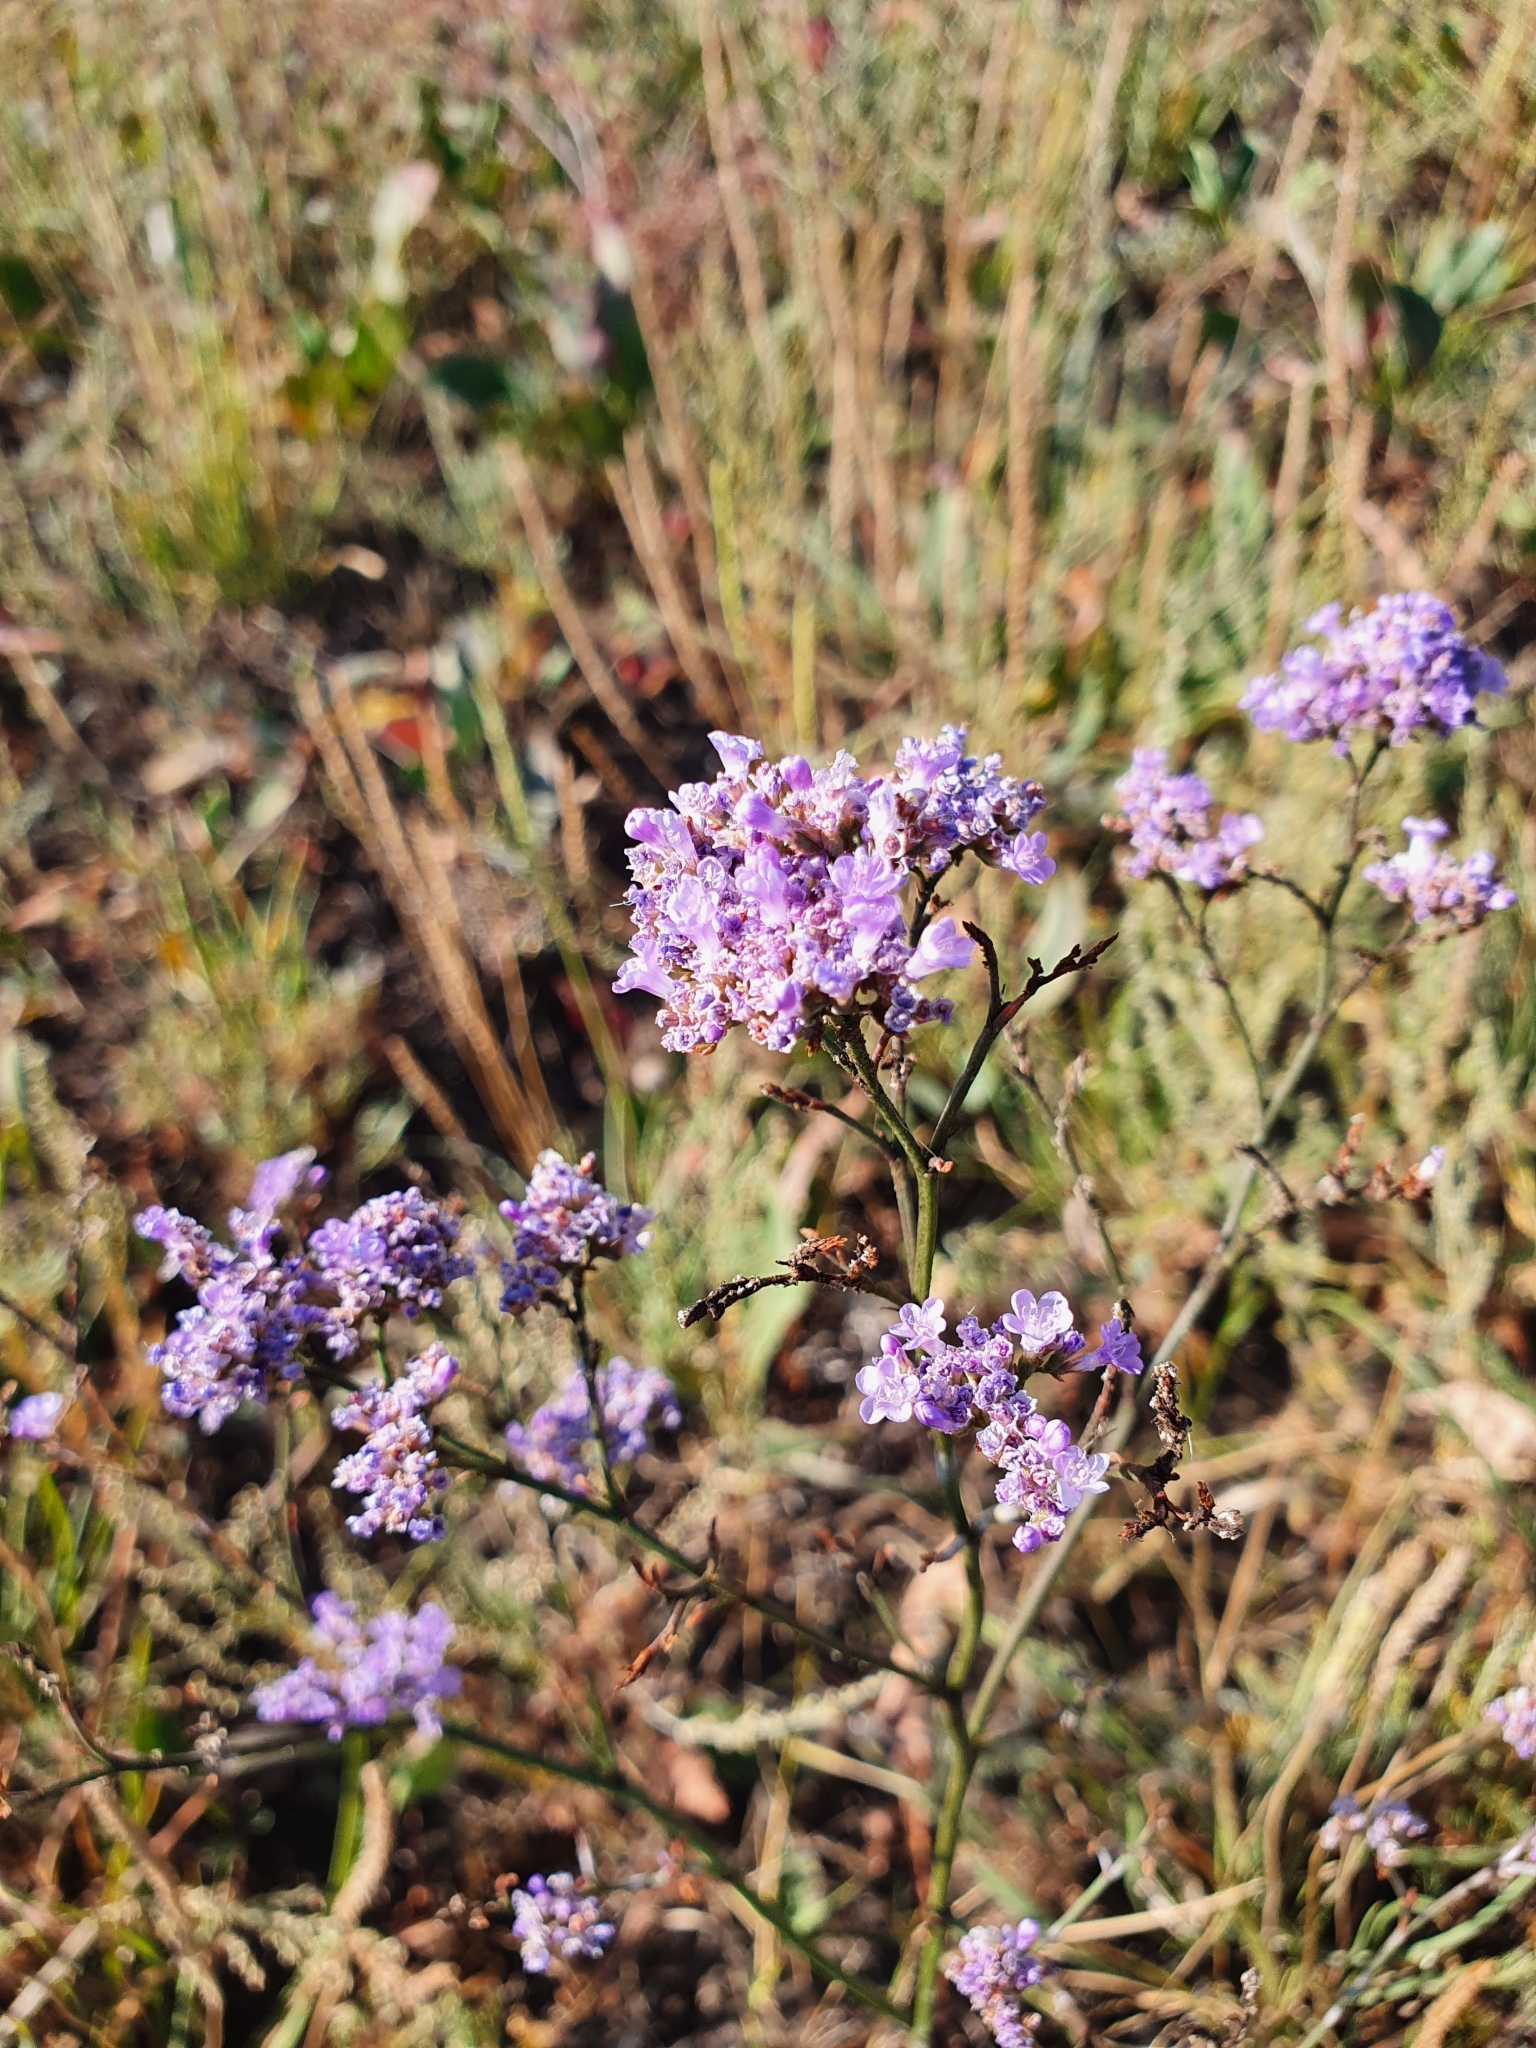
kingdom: Plantae
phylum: Tracheophyta
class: Magnoliopsida
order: Caryophyllales
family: Plumbaginaceae
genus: Limonium
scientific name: Limonium gmelini
